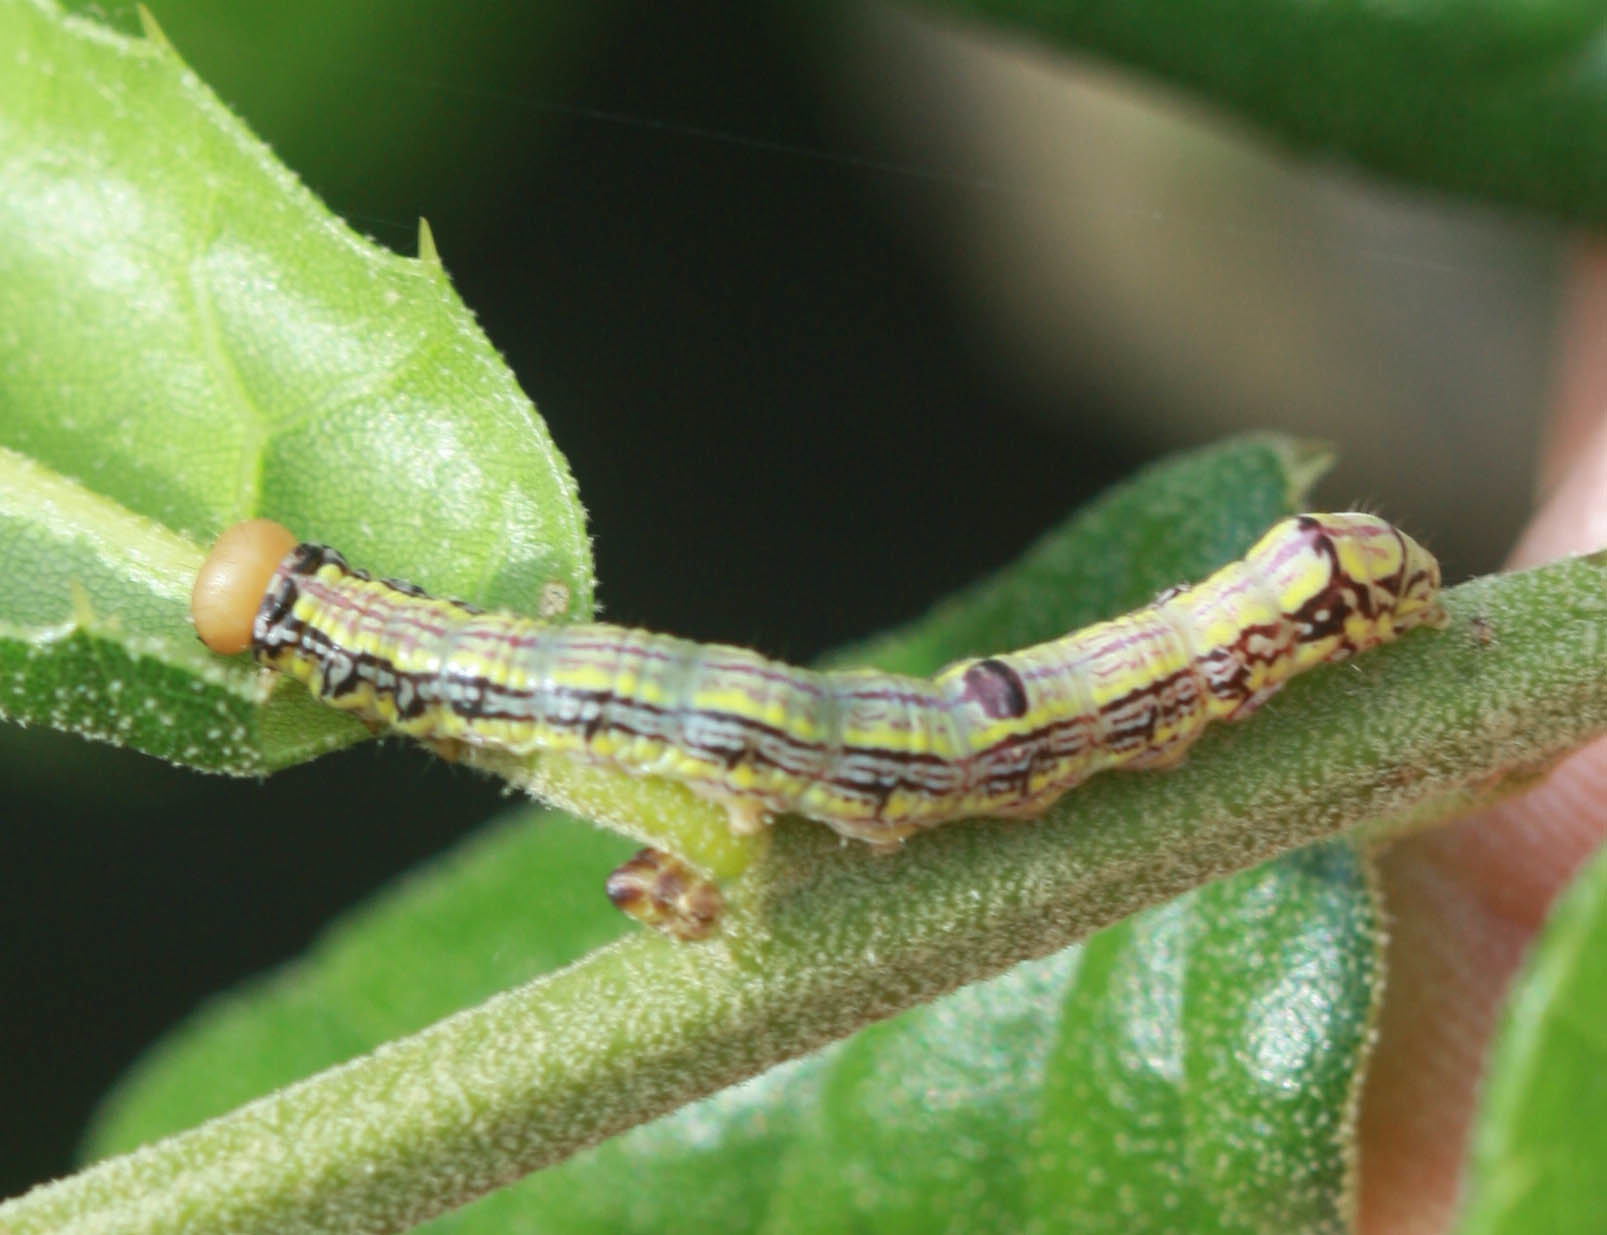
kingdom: Animalia
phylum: Arthropoda
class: Insecta
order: Lepidoptera
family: Notodontidae
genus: Phryganidia
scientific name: Phryganidia californica
